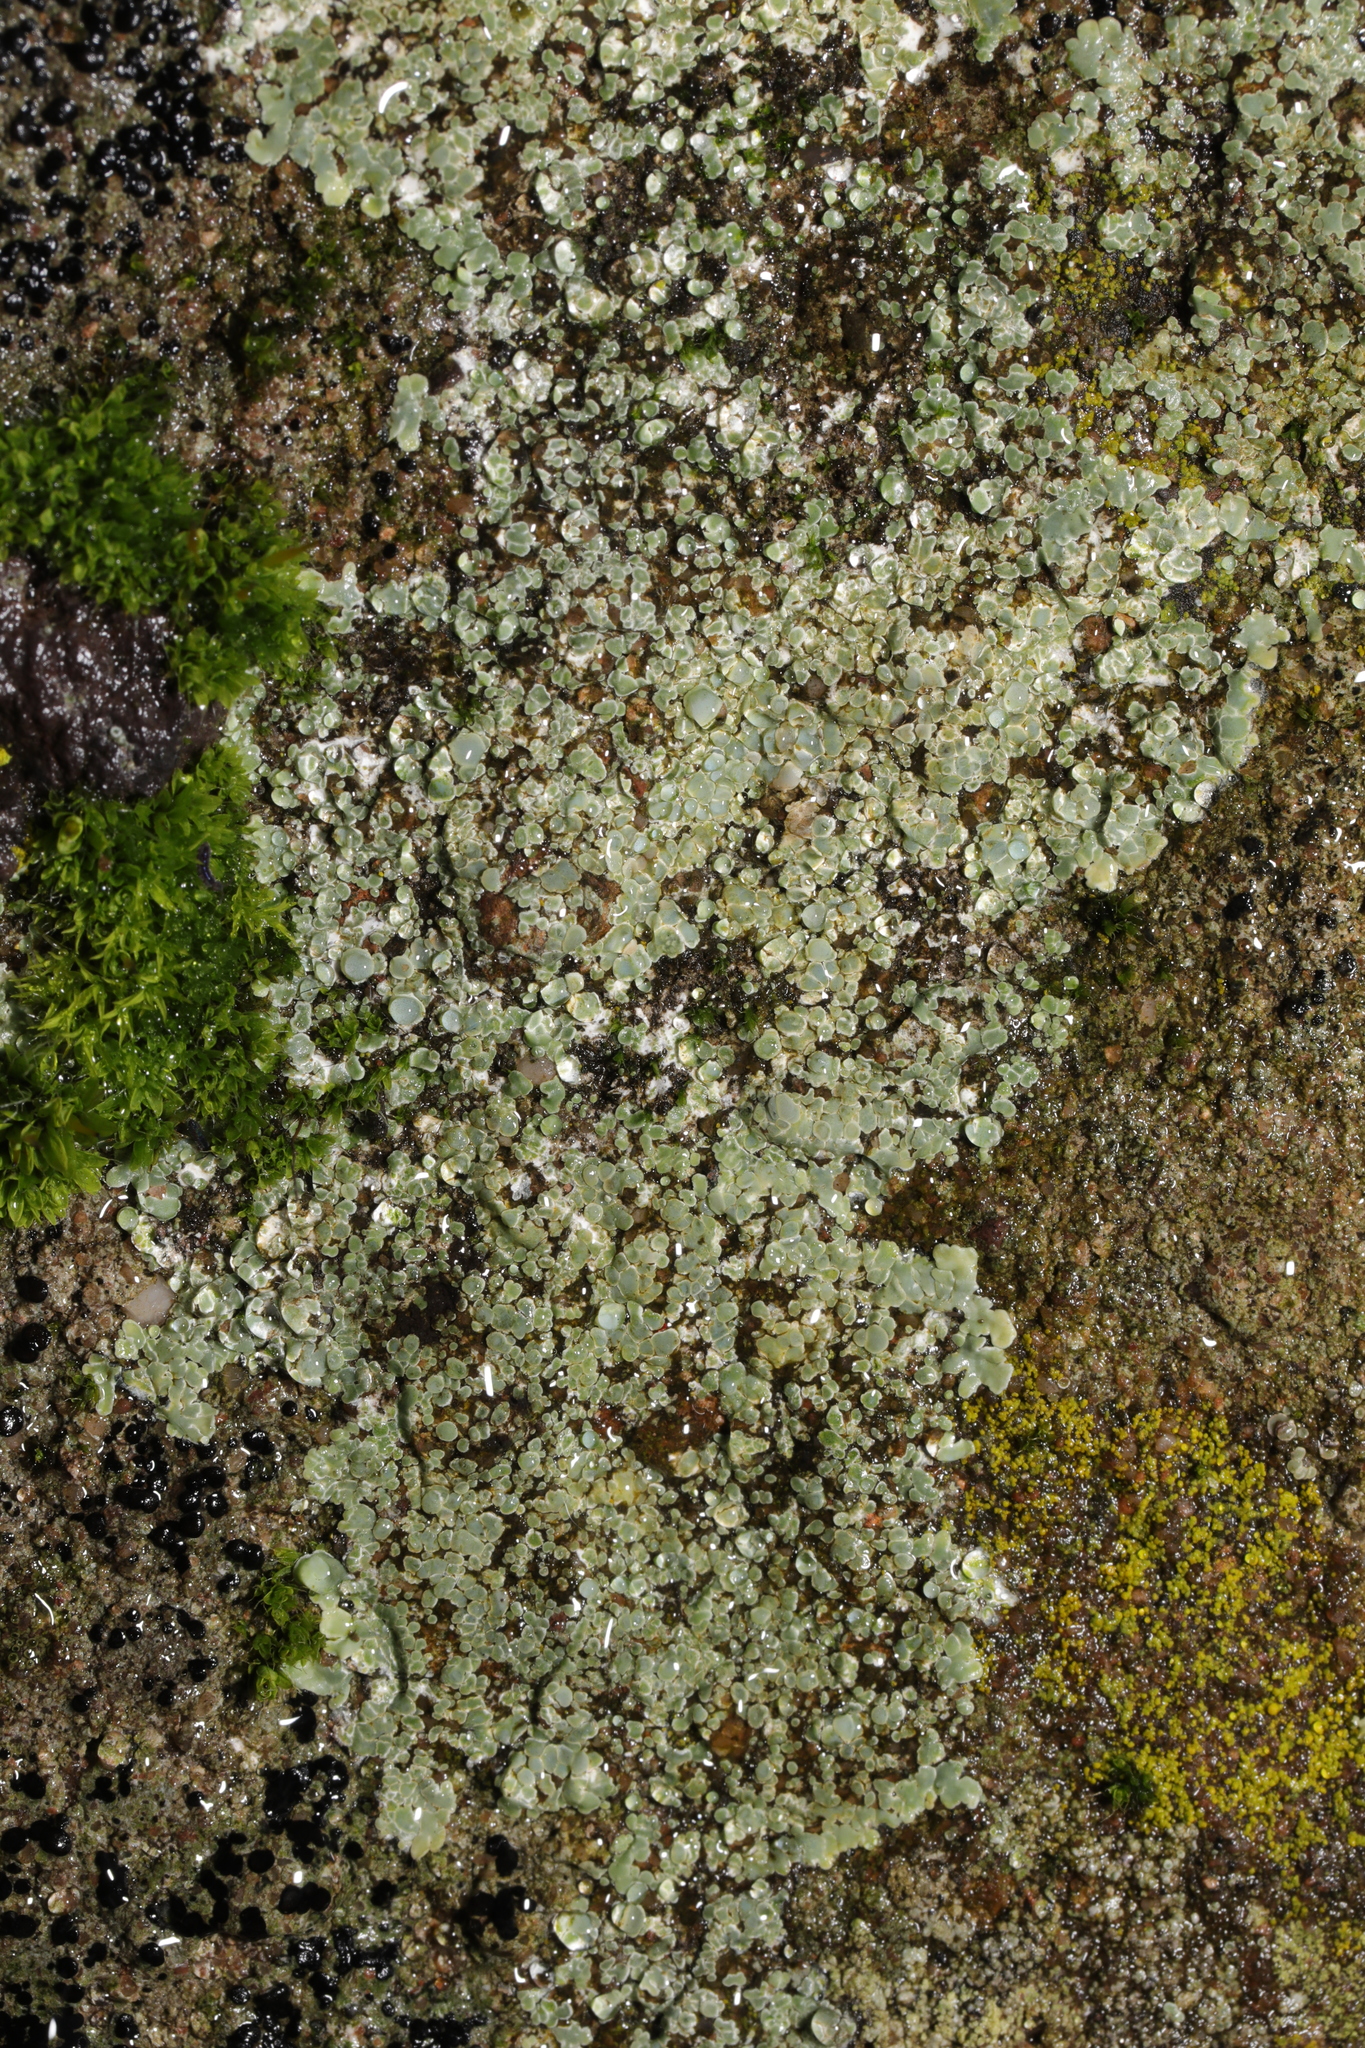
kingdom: Fungi
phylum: Ascomycota
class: Lecanoromycetes
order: Lecanorales
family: Lecanoraceae
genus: Protoparmeliopsis
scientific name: Protoparmeliopsis muralis
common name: Stonewall rim lichen
